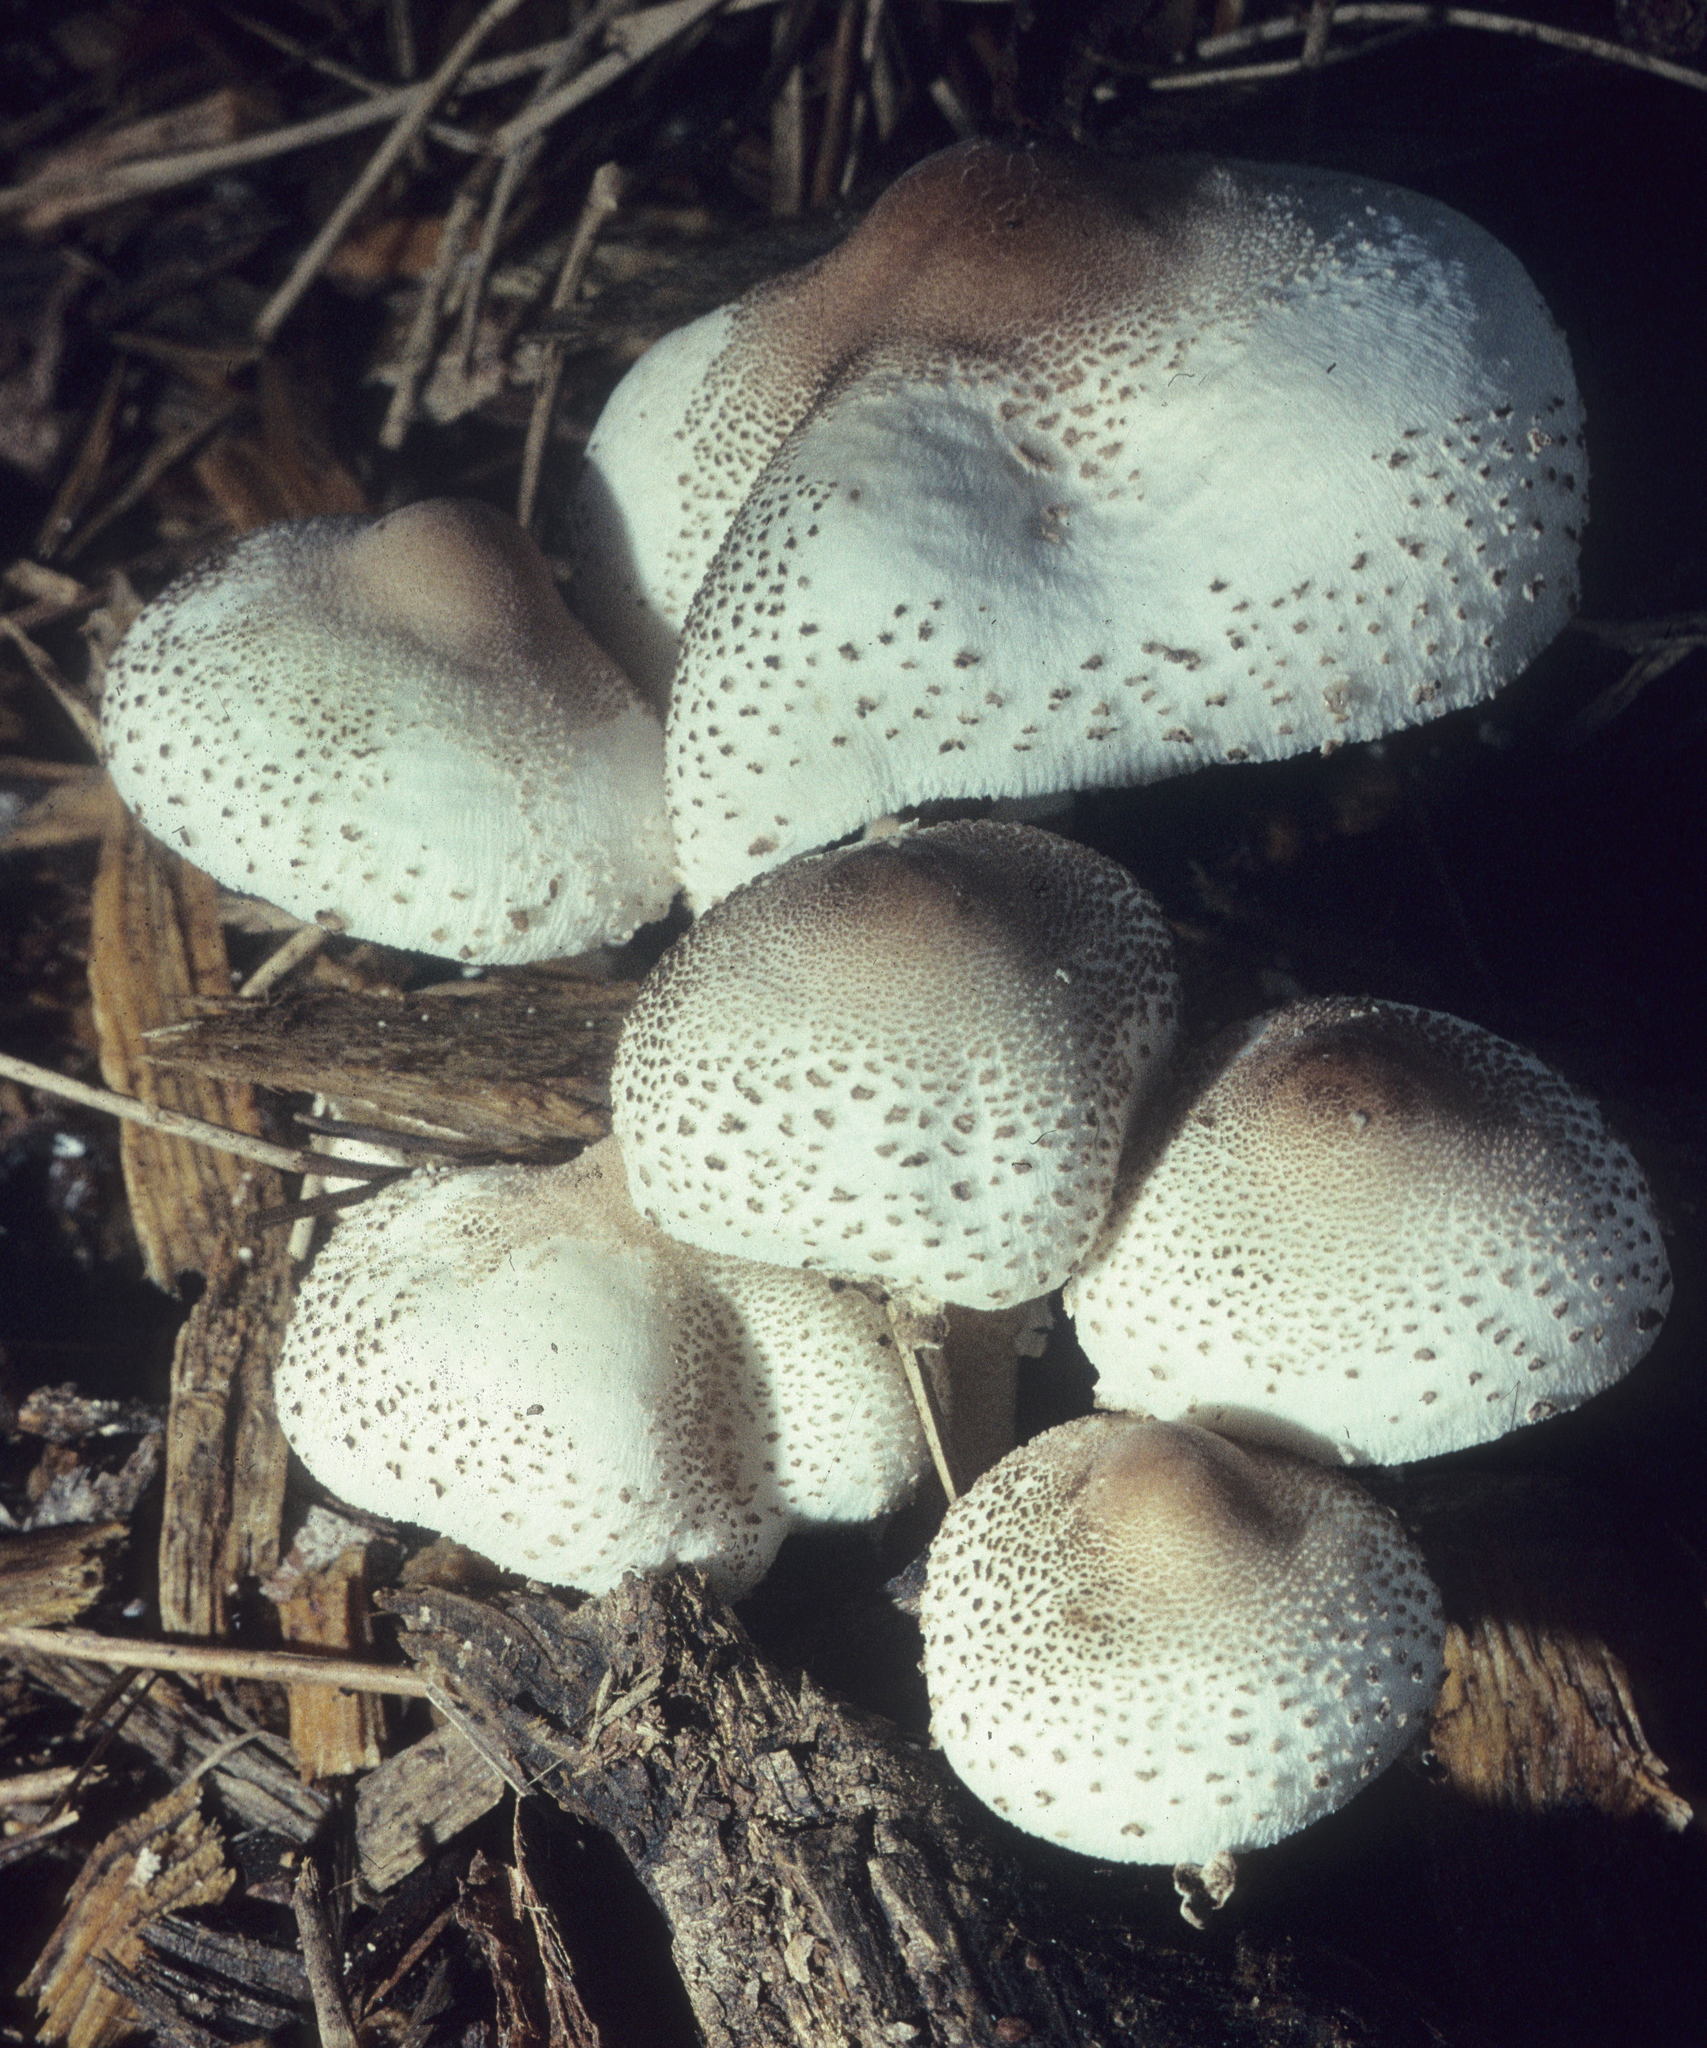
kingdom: Fungi
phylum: Basidiomycota
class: Agaricomycetes
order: Agaricales
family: Agaricaceae
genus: Leucoagaricus
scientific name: Leucoagaricus americanus
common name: Reddening lepiota
